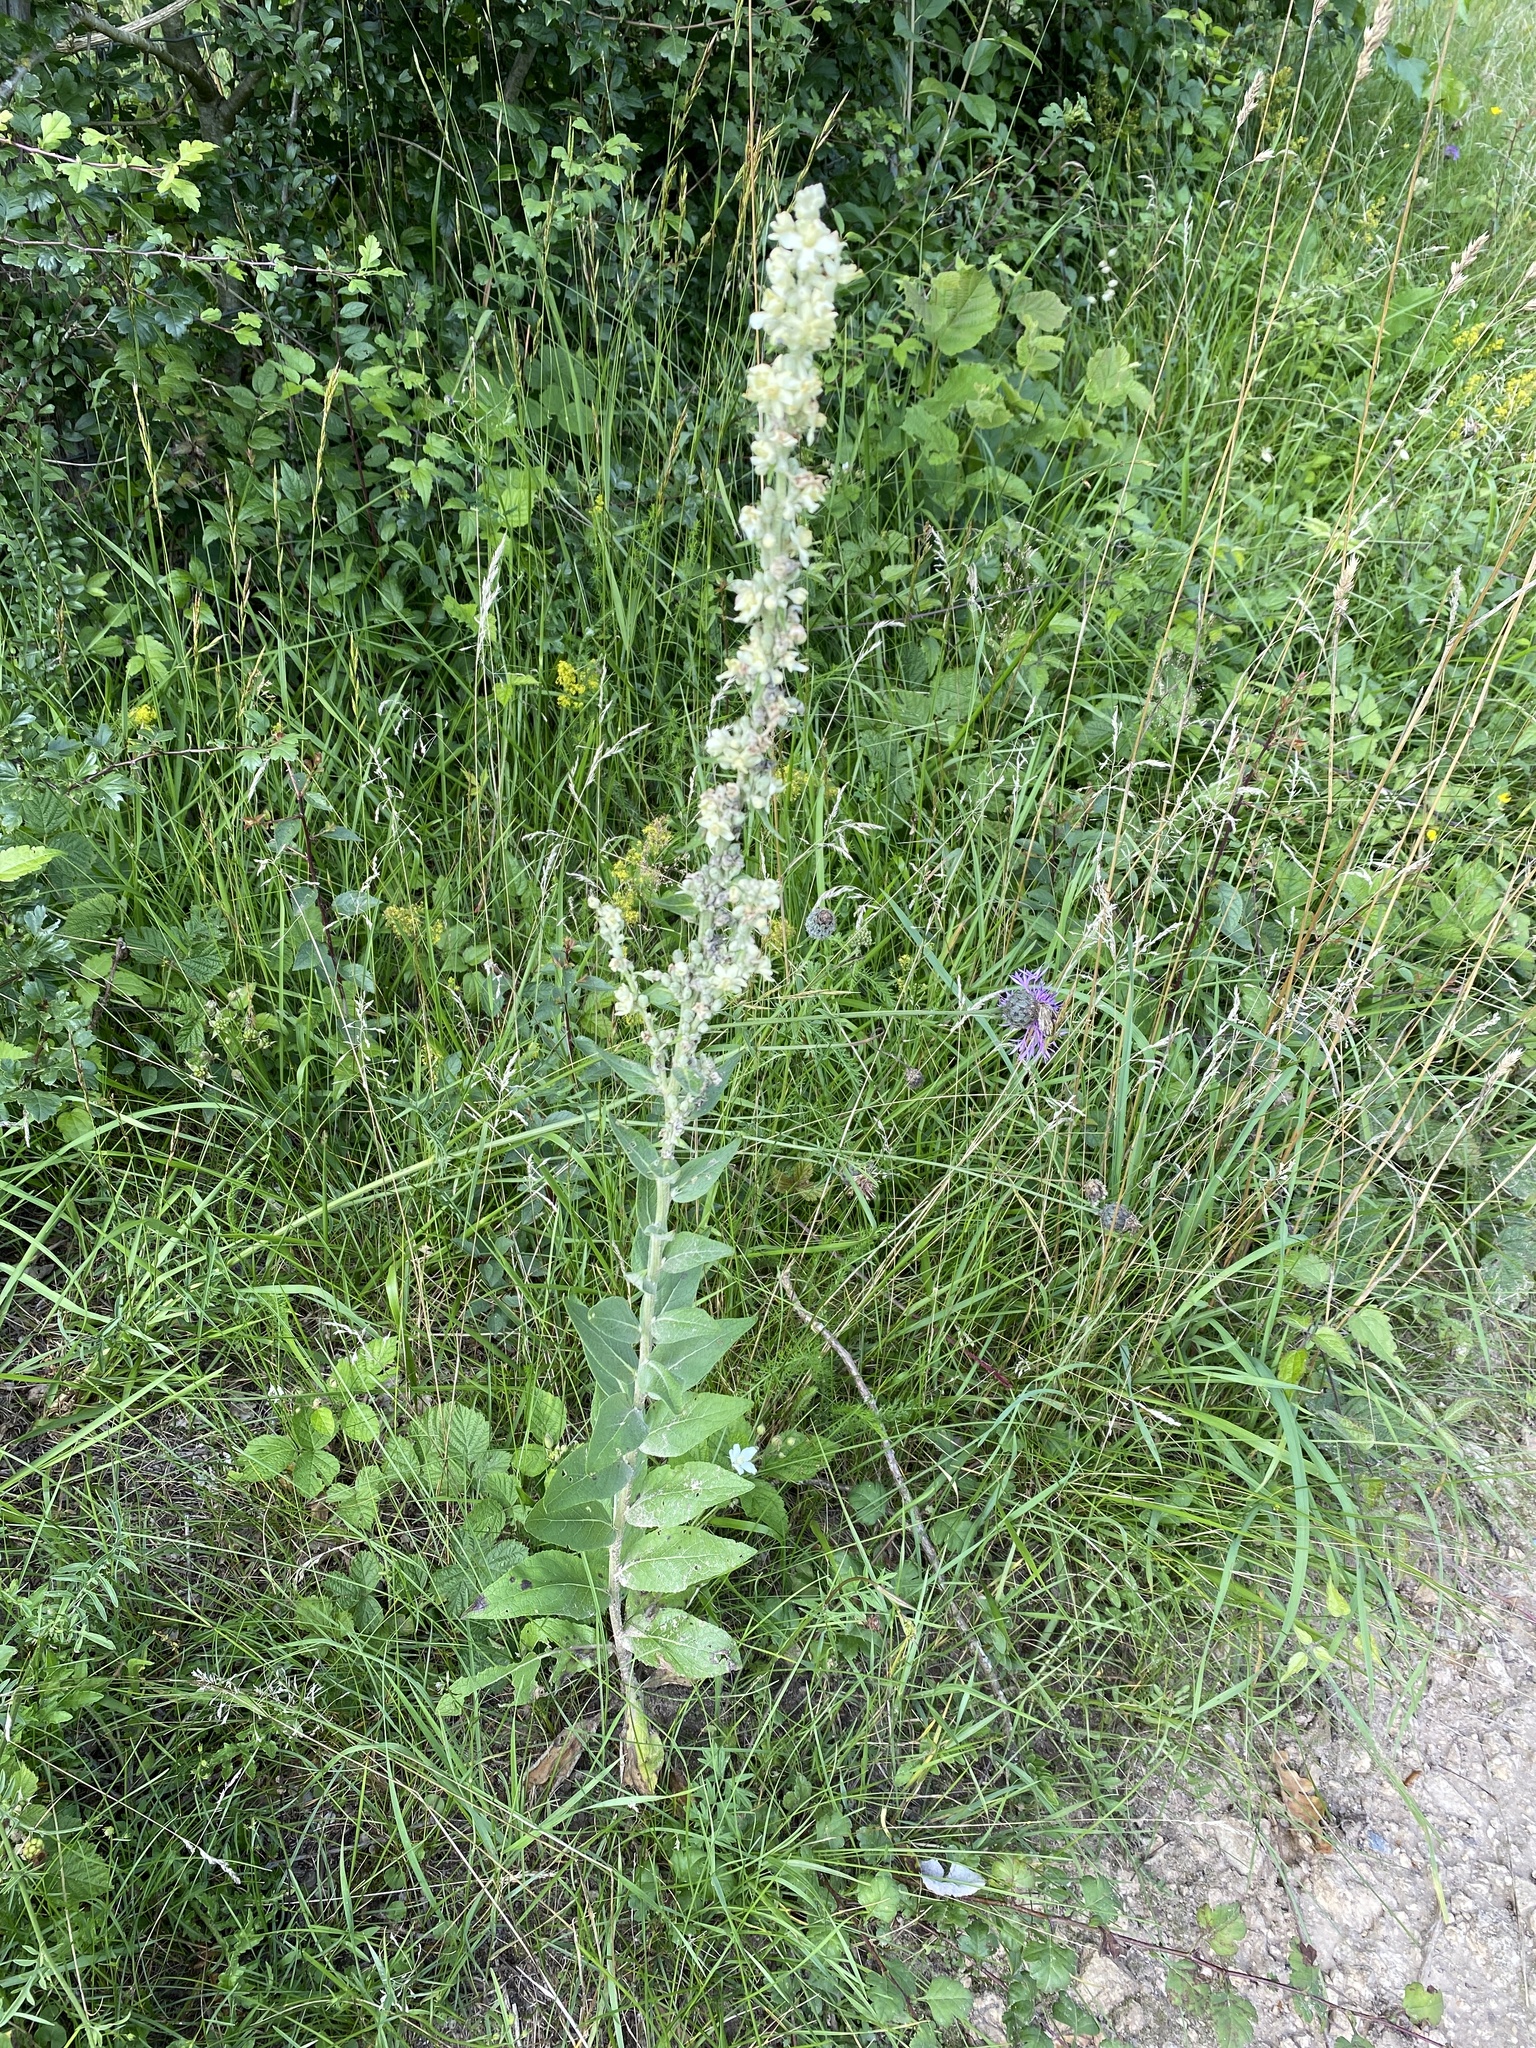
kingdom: Plantae
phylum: Tracheophyta
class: Magnoliopsida
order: Lamiales
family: Scrophulariaceae
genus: Verbascum
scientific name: Verbascum lychnitis
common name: White mullein
